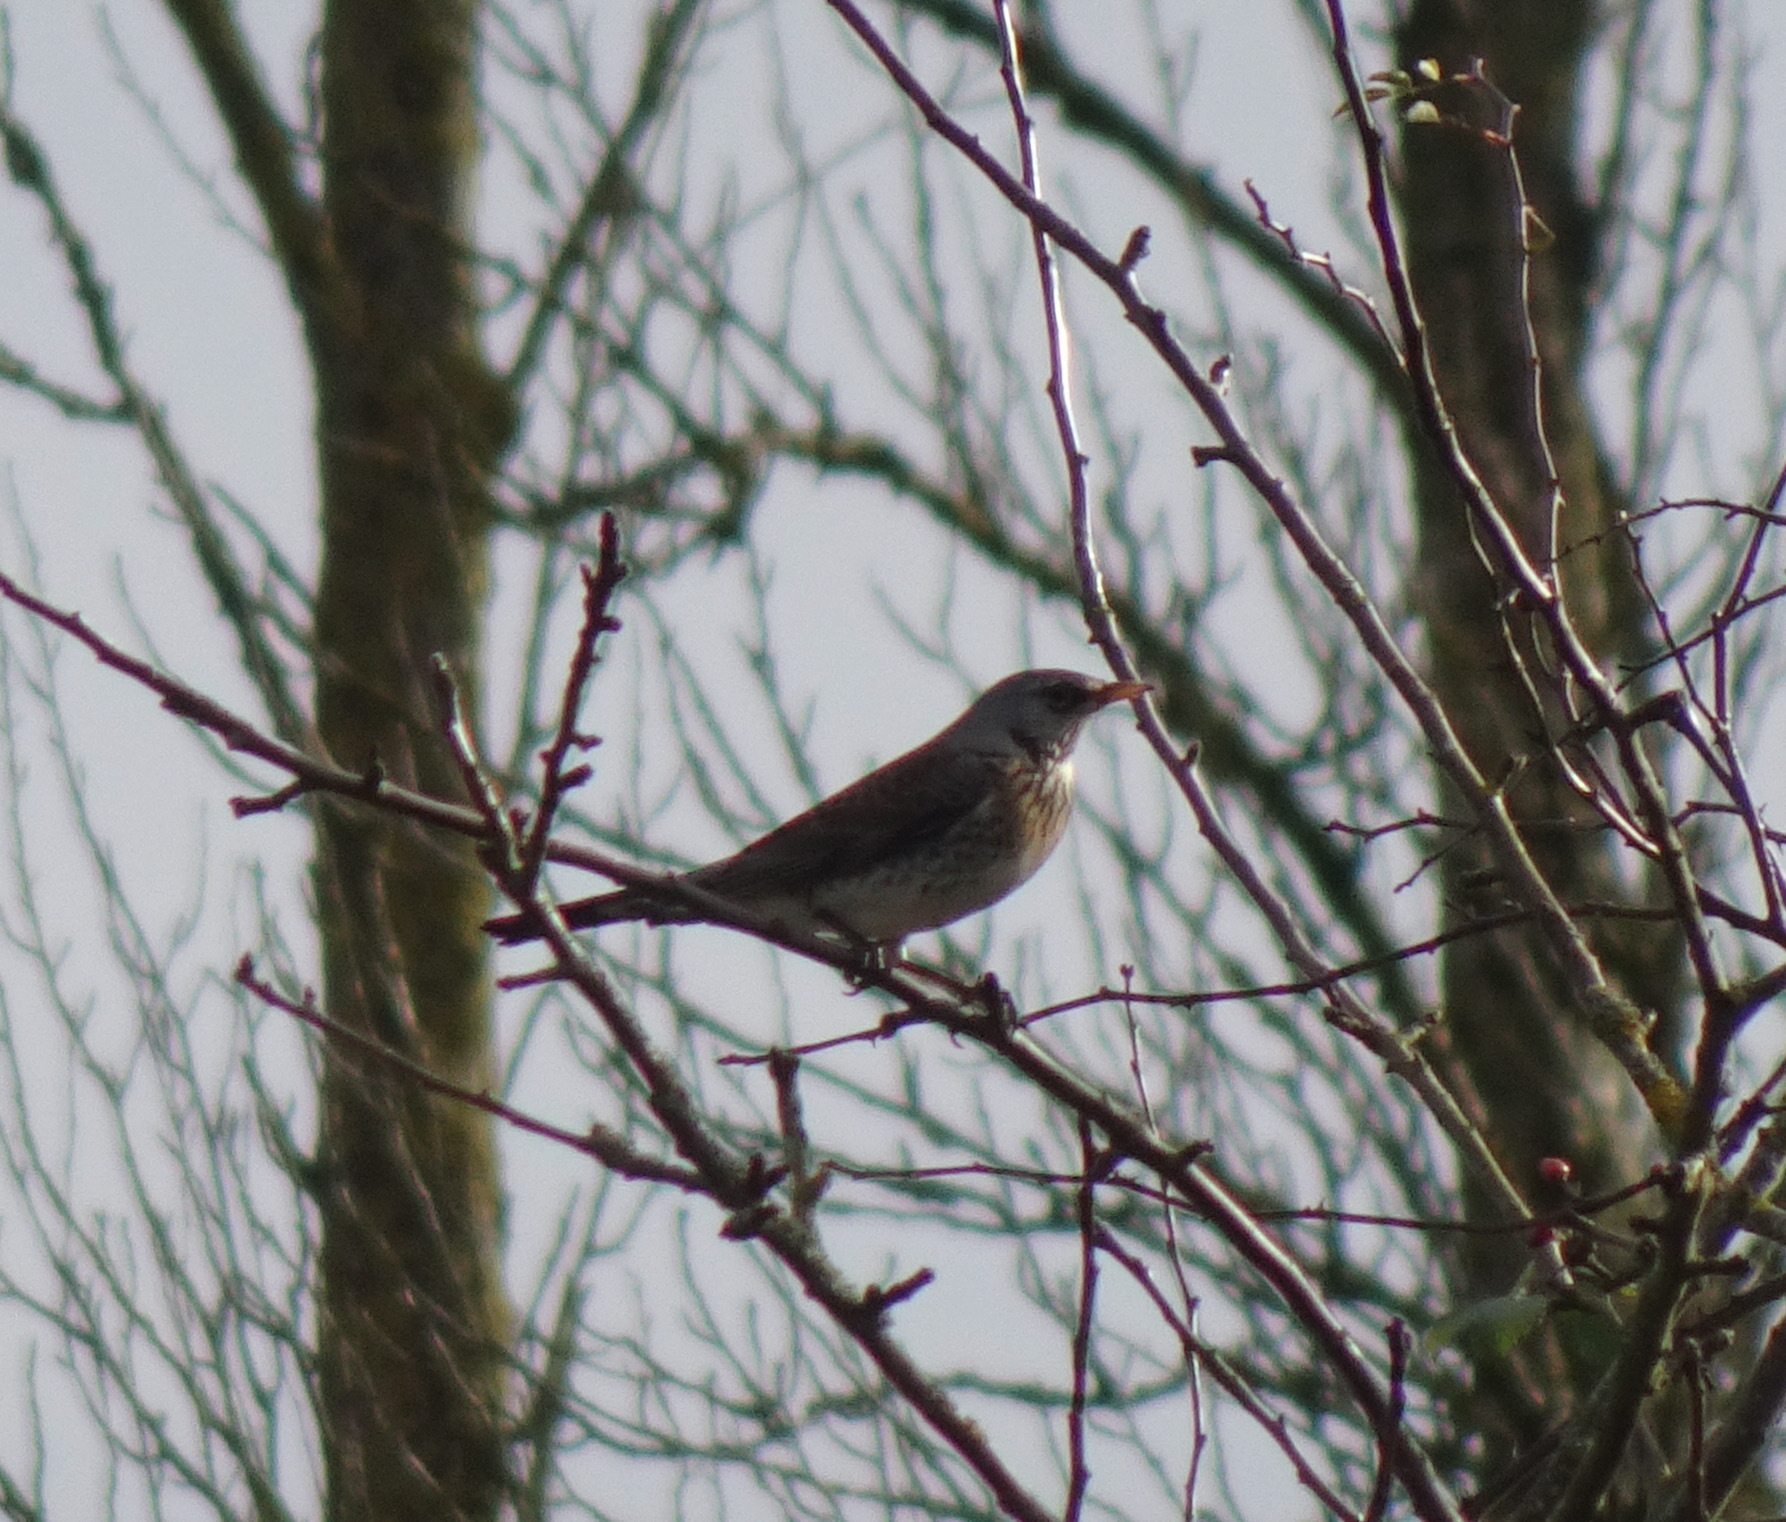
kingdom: Animalia
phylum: Chordata
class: Aves
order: Passeriformes
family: Turdidae
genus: Turdus
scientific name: Turdus pilaris
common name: Fieldfare
